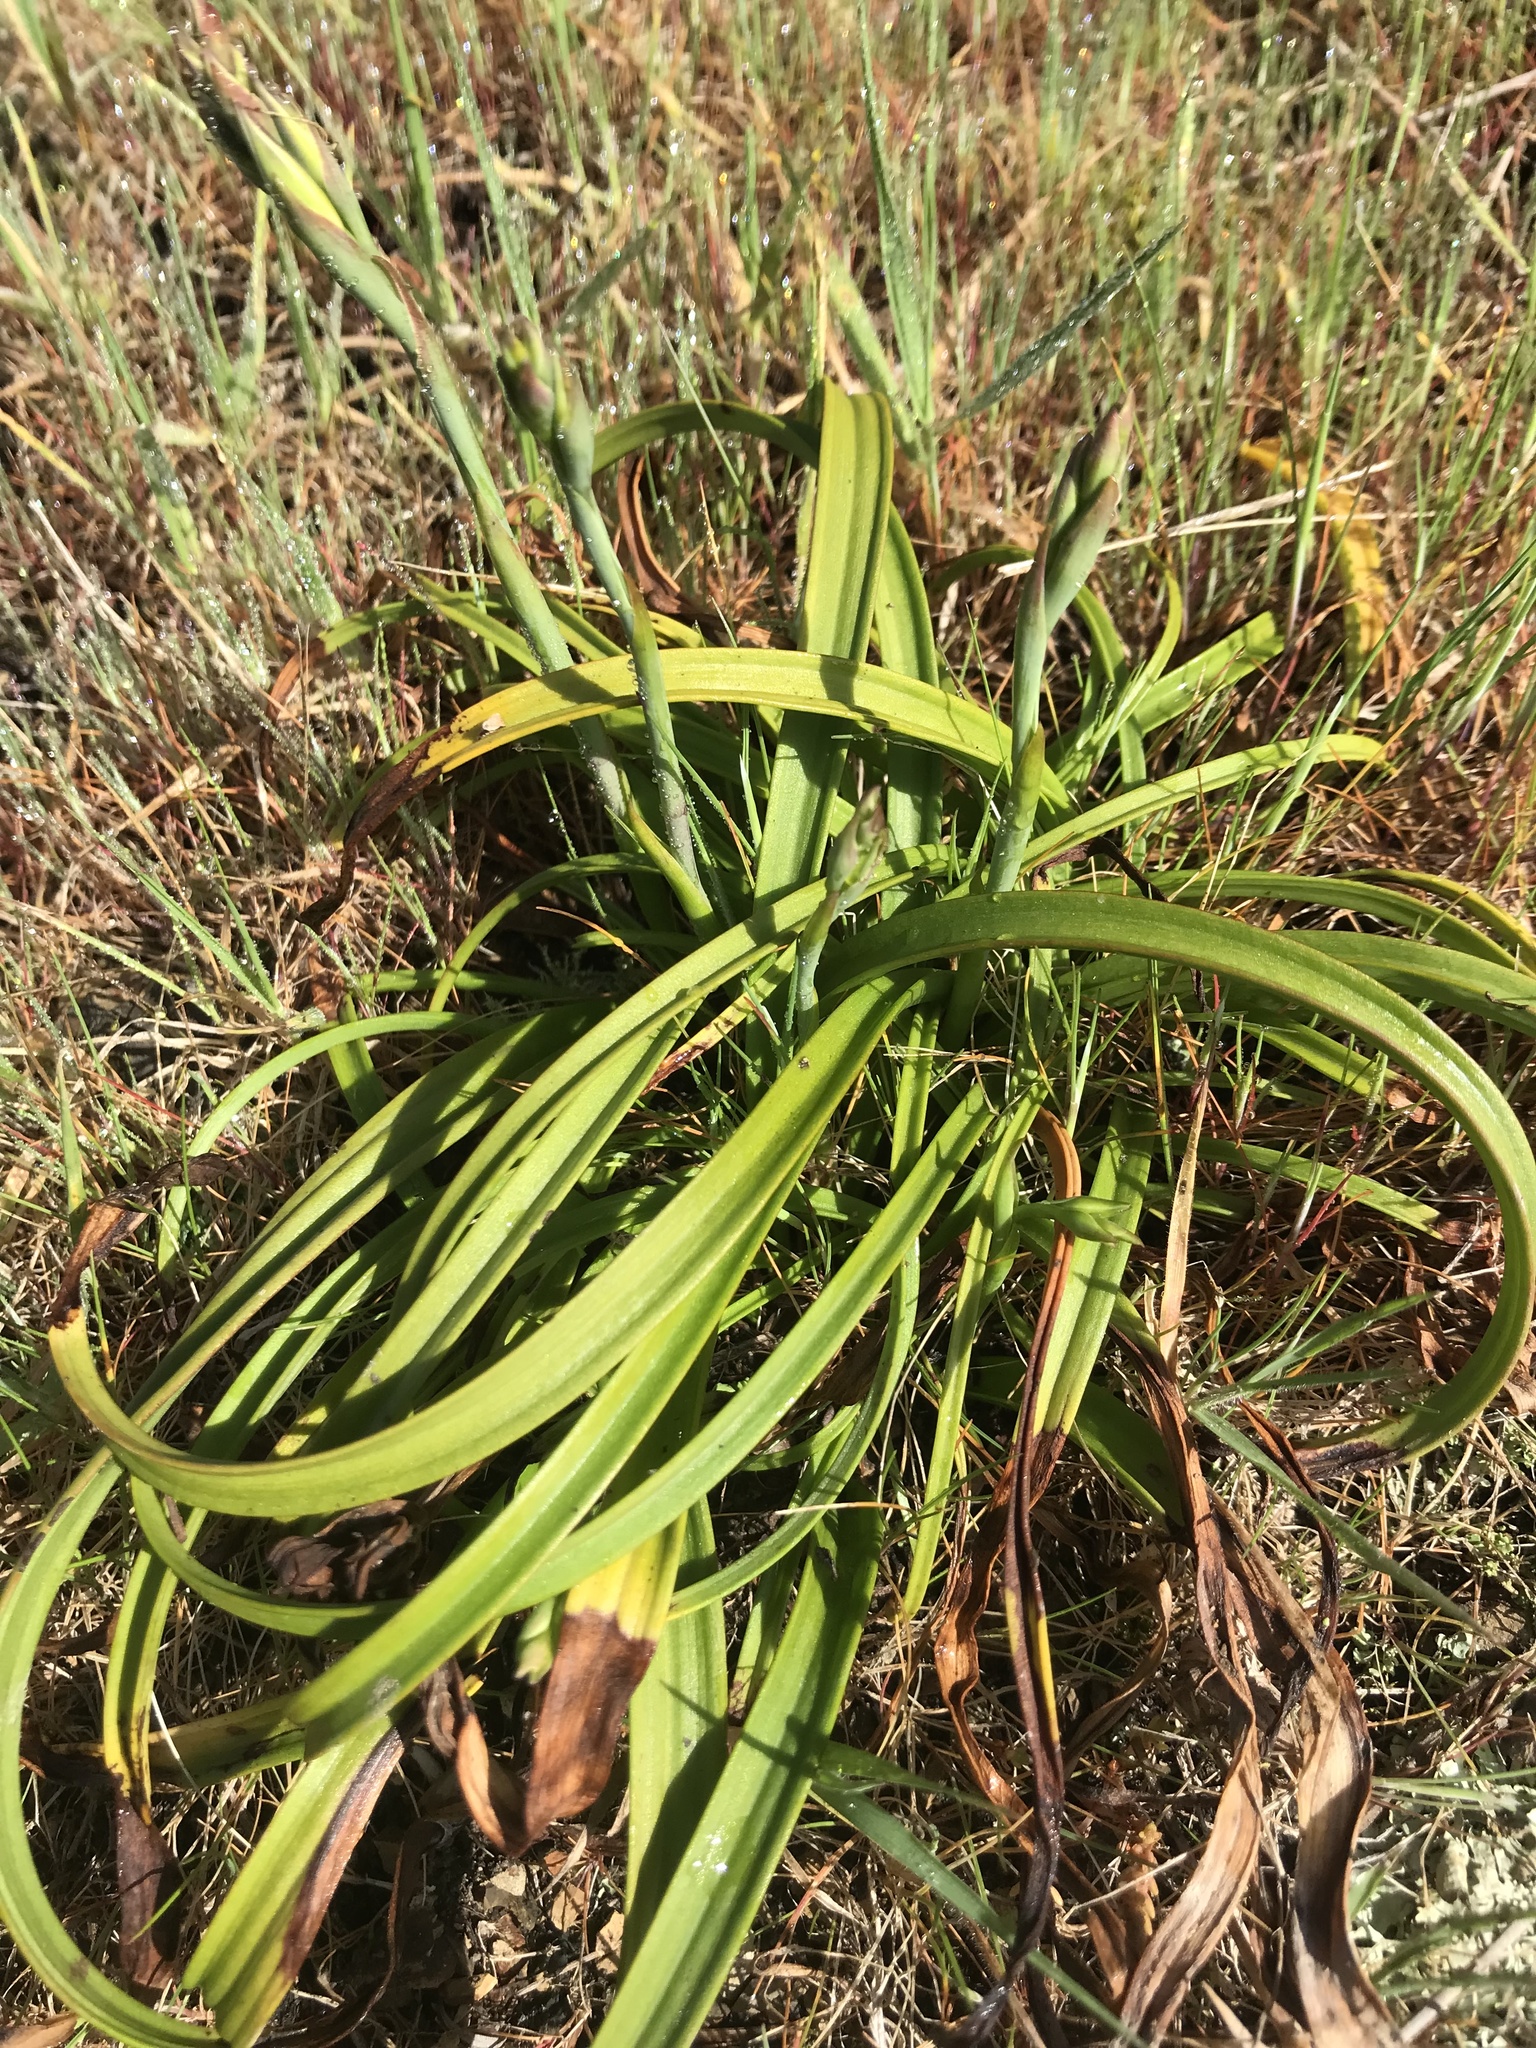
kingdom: Plantae
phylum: Tracheophyta
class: Liliopsida
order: Asparagales
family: Orchidaceae
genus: Thelymitra
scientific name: Thelymitra longifolia
